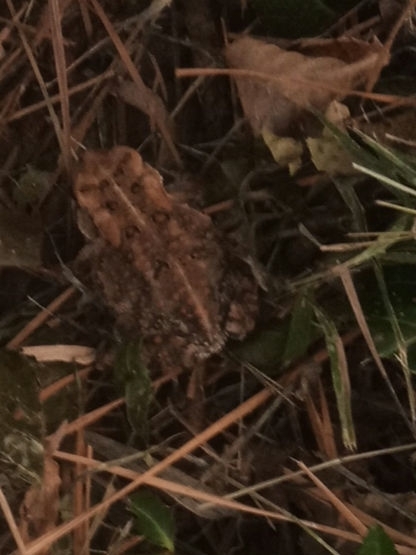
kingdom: Animalia
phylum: Chordata
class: Amphibia
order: Anura
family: Bufonidae
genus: Anaxyrus
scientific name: Anaxyrus americanus
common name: American toad
